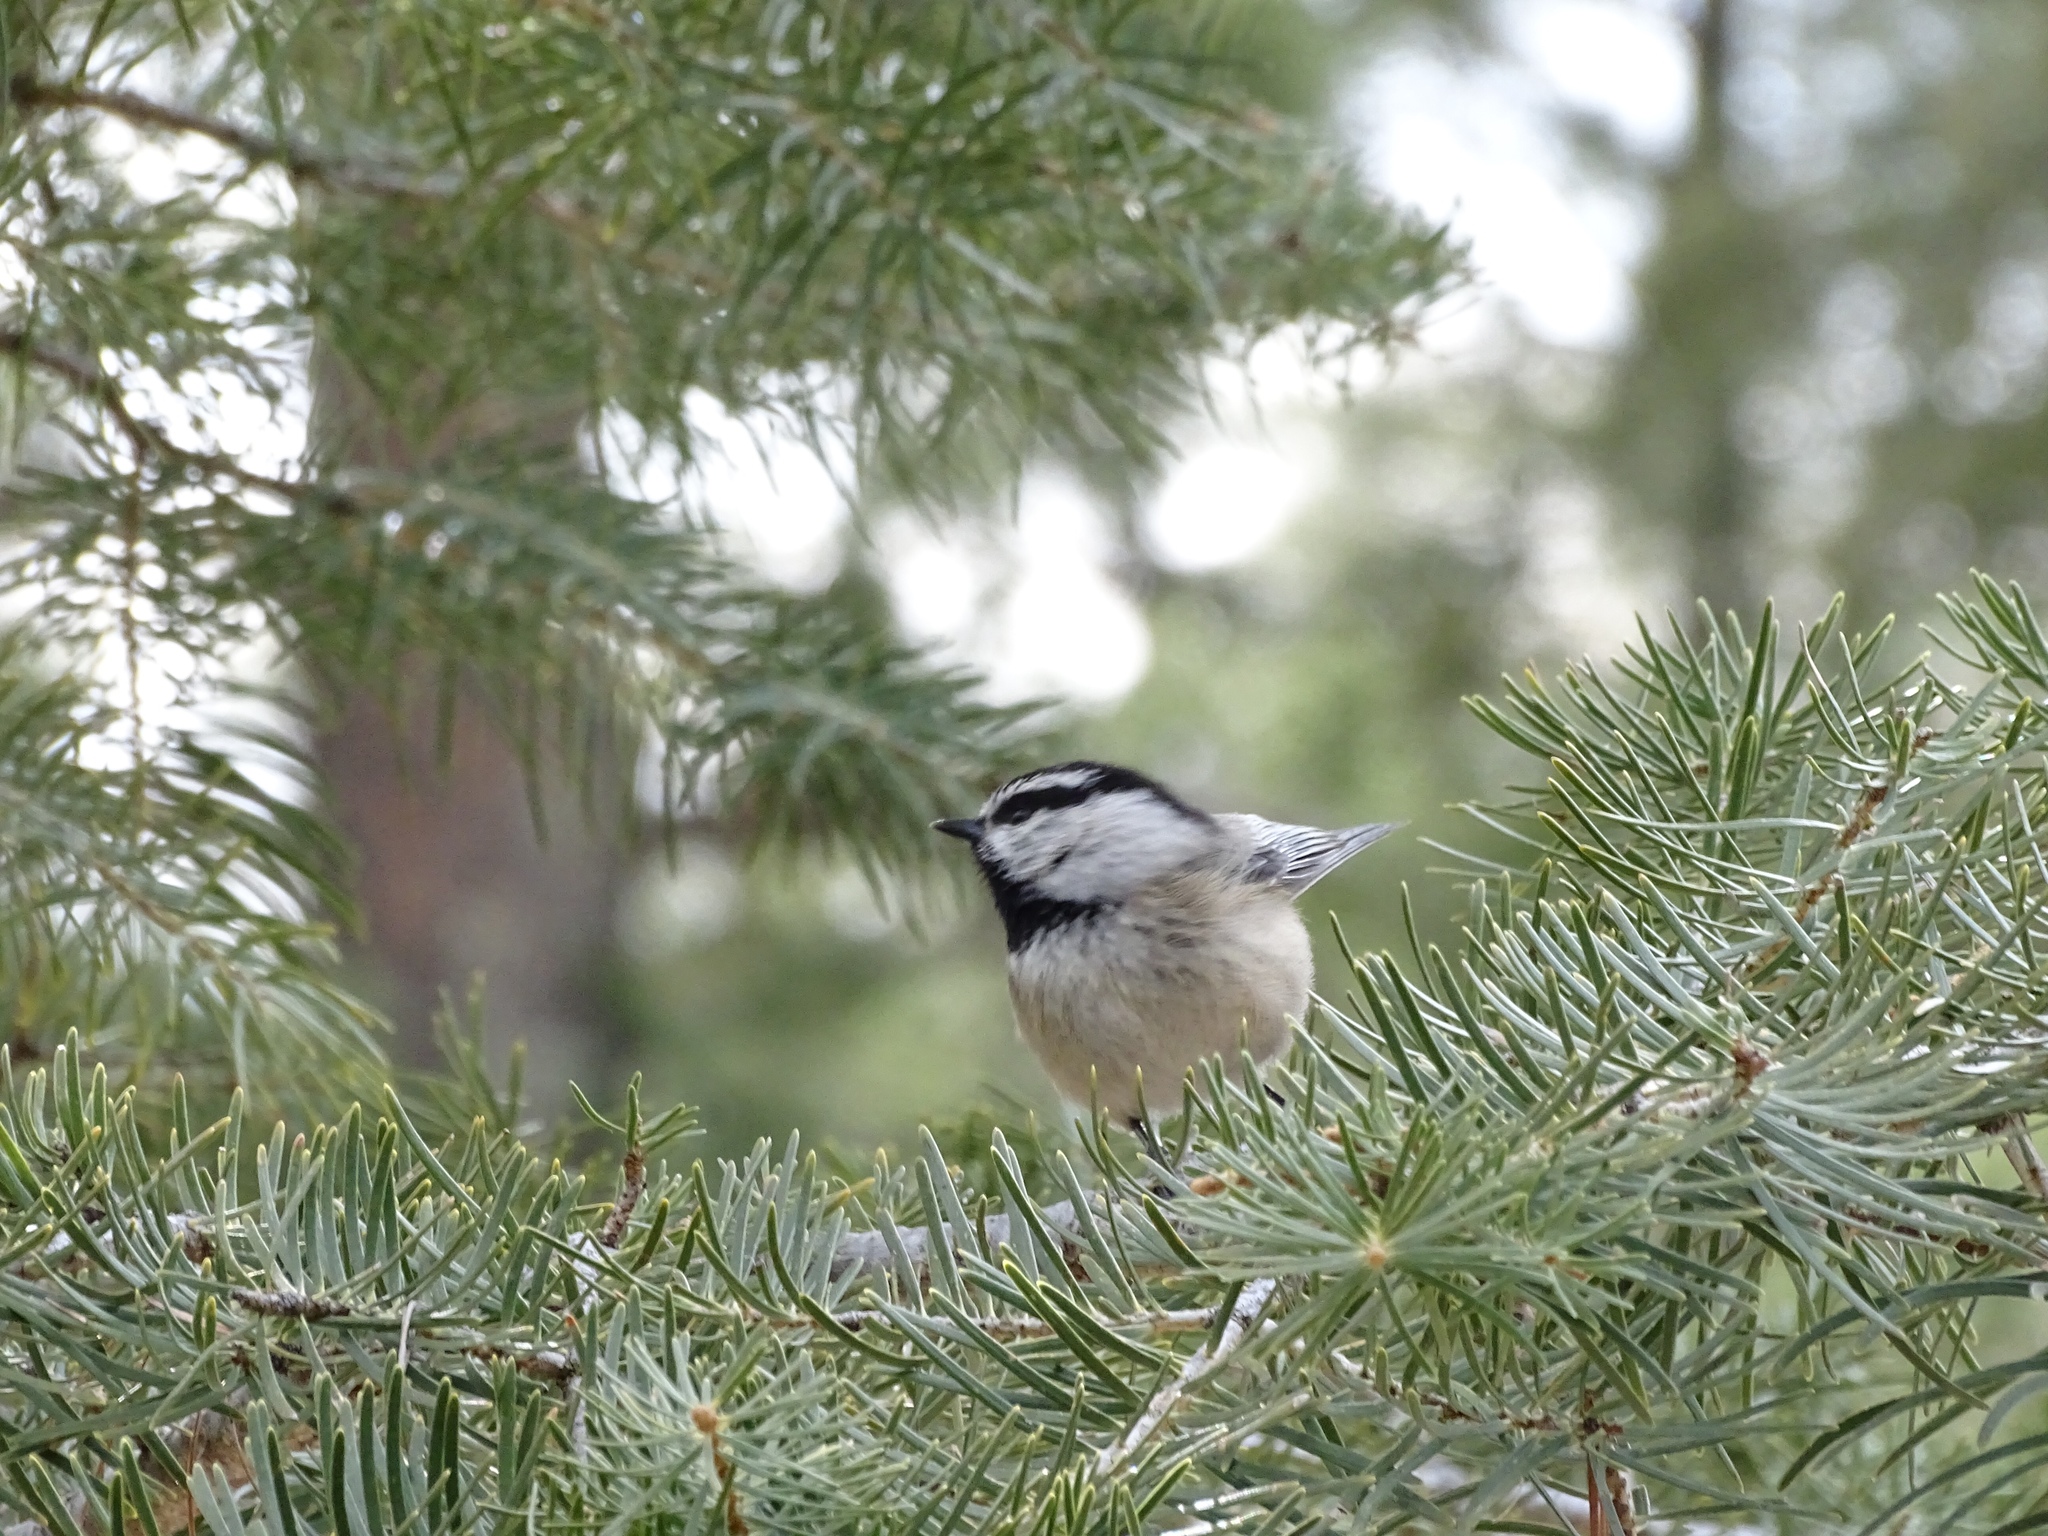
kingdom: Animalia
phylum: Chordata
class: Aves
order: Passeriformes
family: Paridae
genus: Poecile
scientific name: Poecile gambeli
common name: Mountain chickadee
